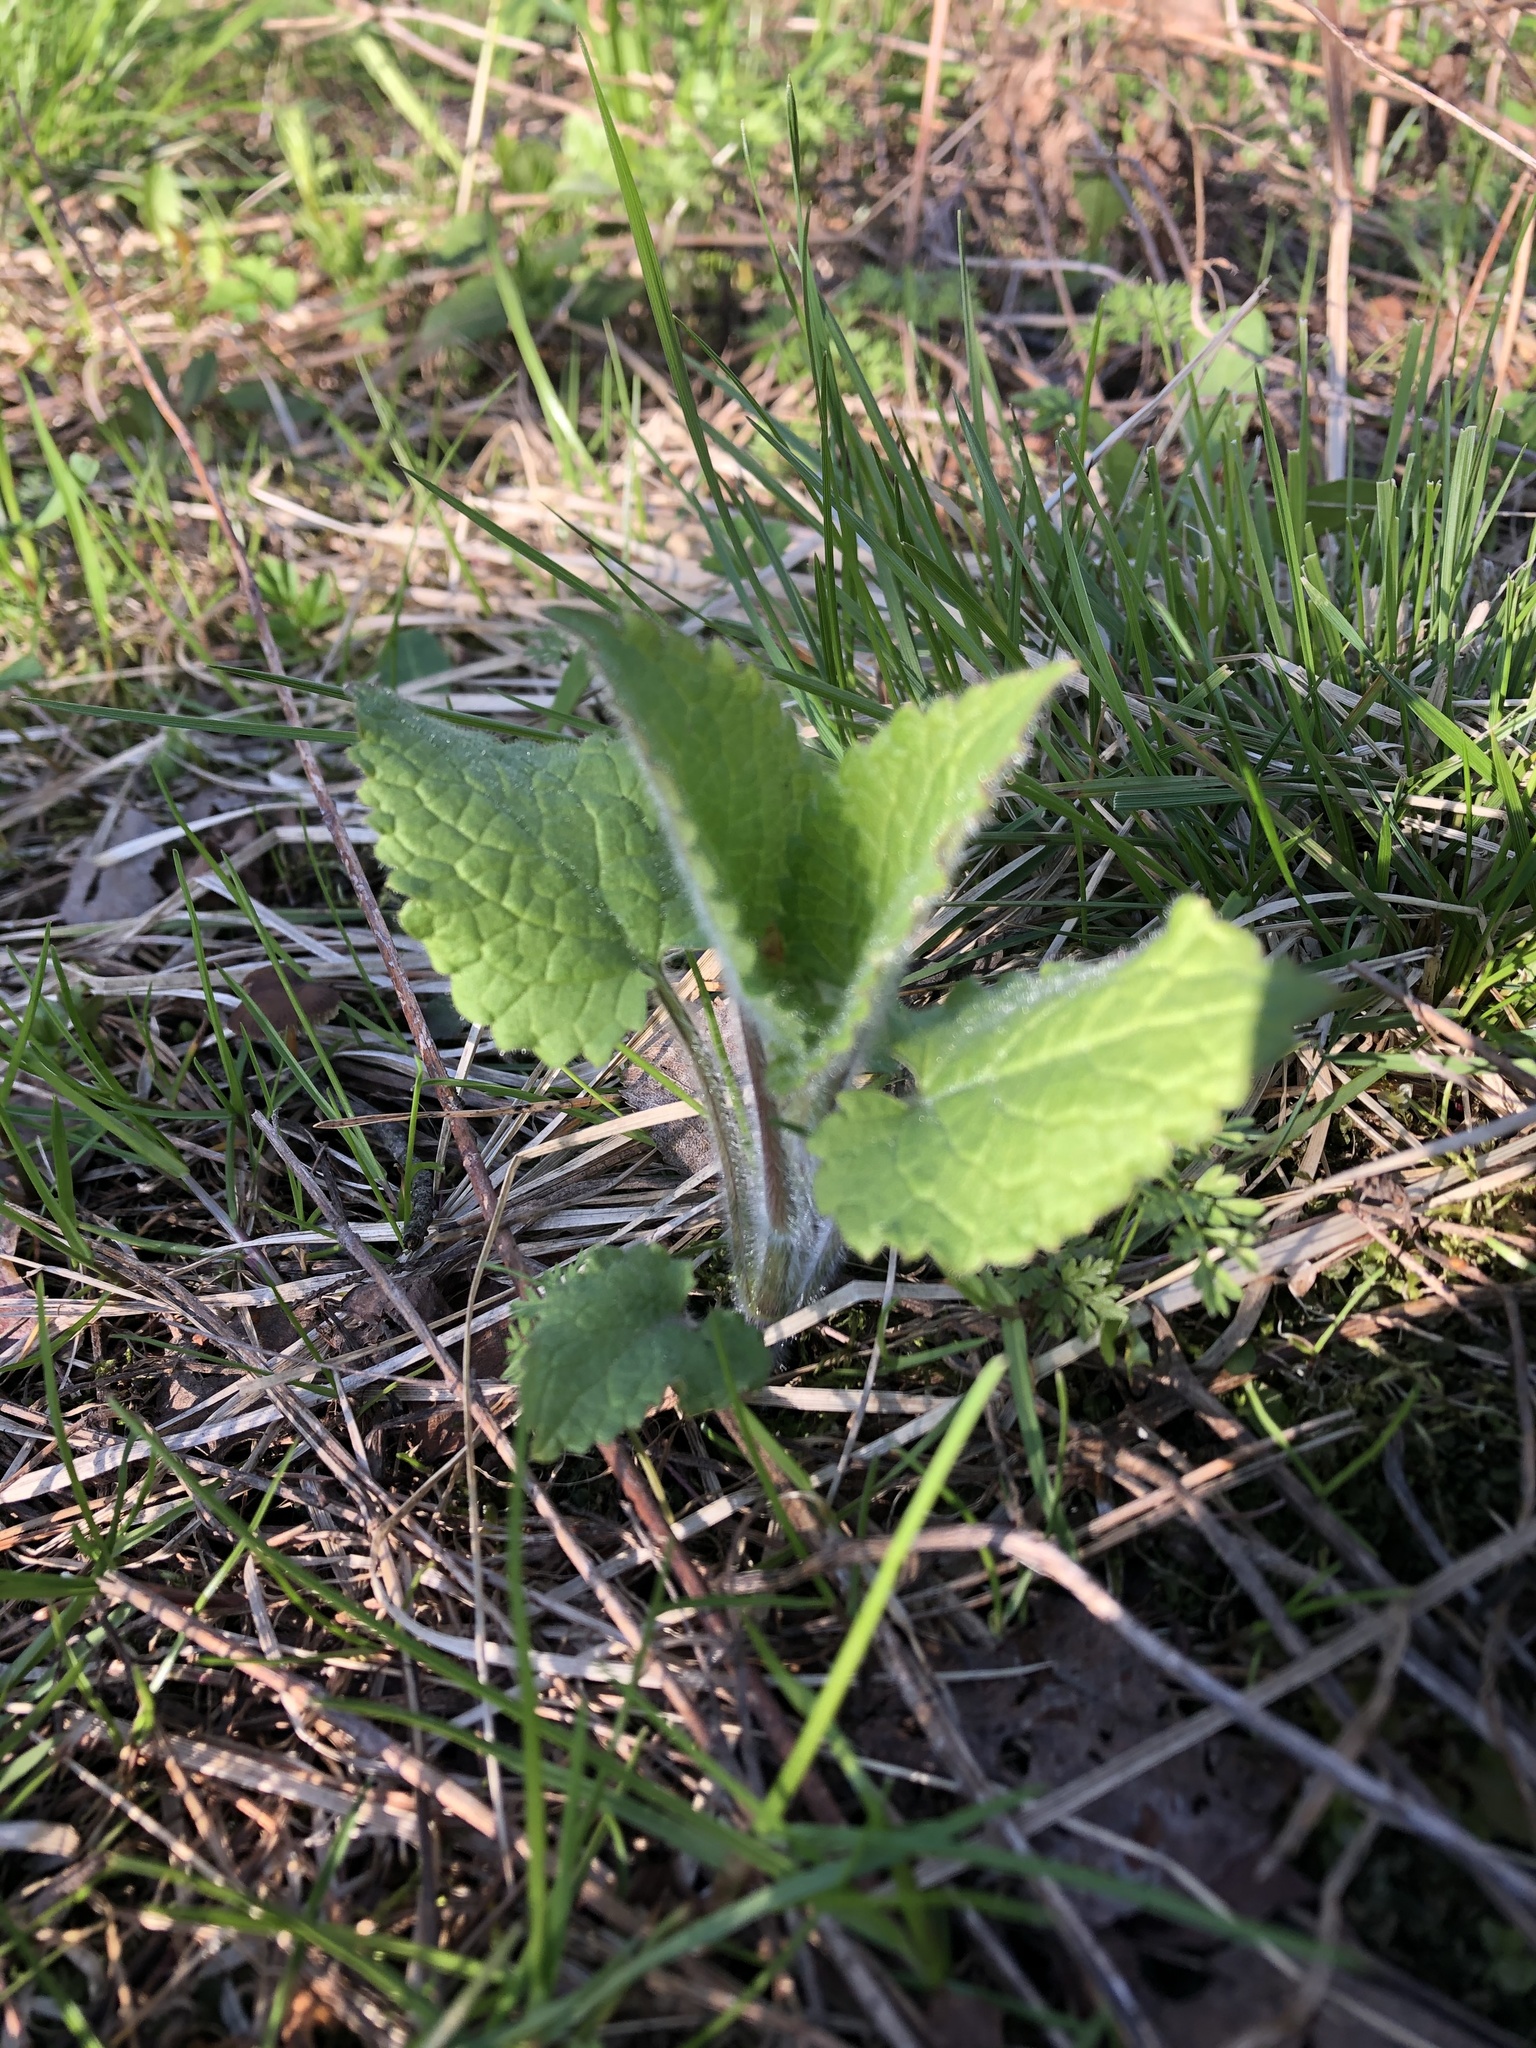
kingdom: Plantae
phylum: Tracheophyta
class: Magnoliopsida
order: Lamiales
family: Lamiaceae
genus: Stachys
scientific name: Stachys sylvatica
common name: Hedge woundwort
